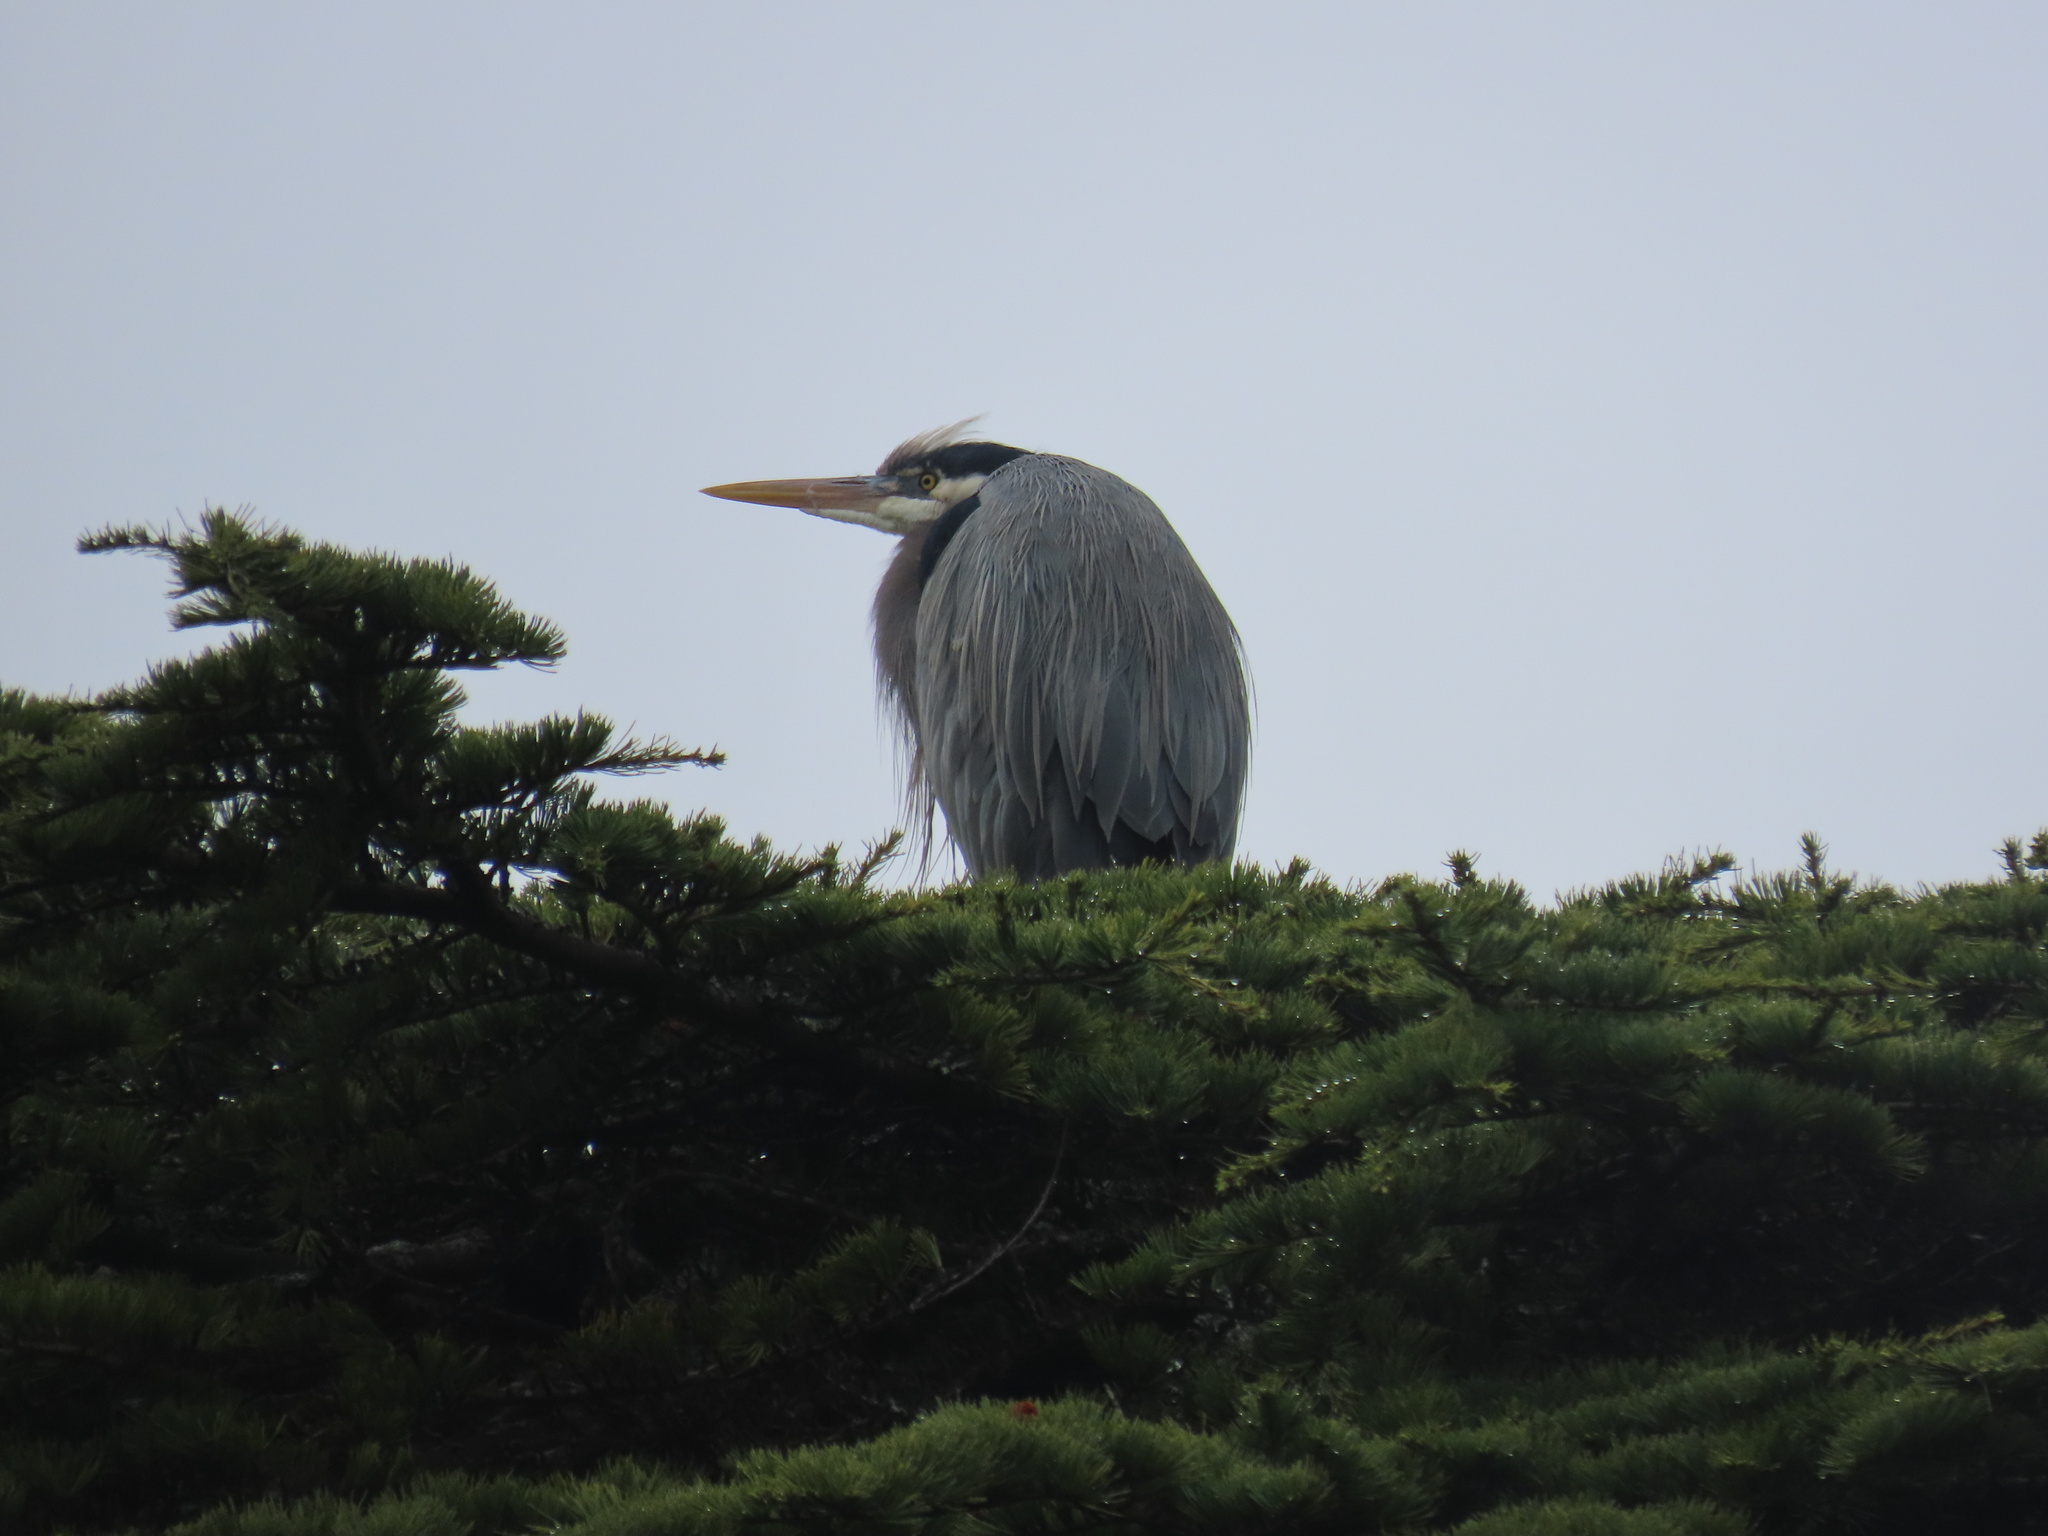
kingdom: Animalia
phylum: Chordata
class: Aves
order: Pelecaniformes
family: Ardeidae
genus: Ardea
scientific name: Ardea herodias
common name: Great blue heron
